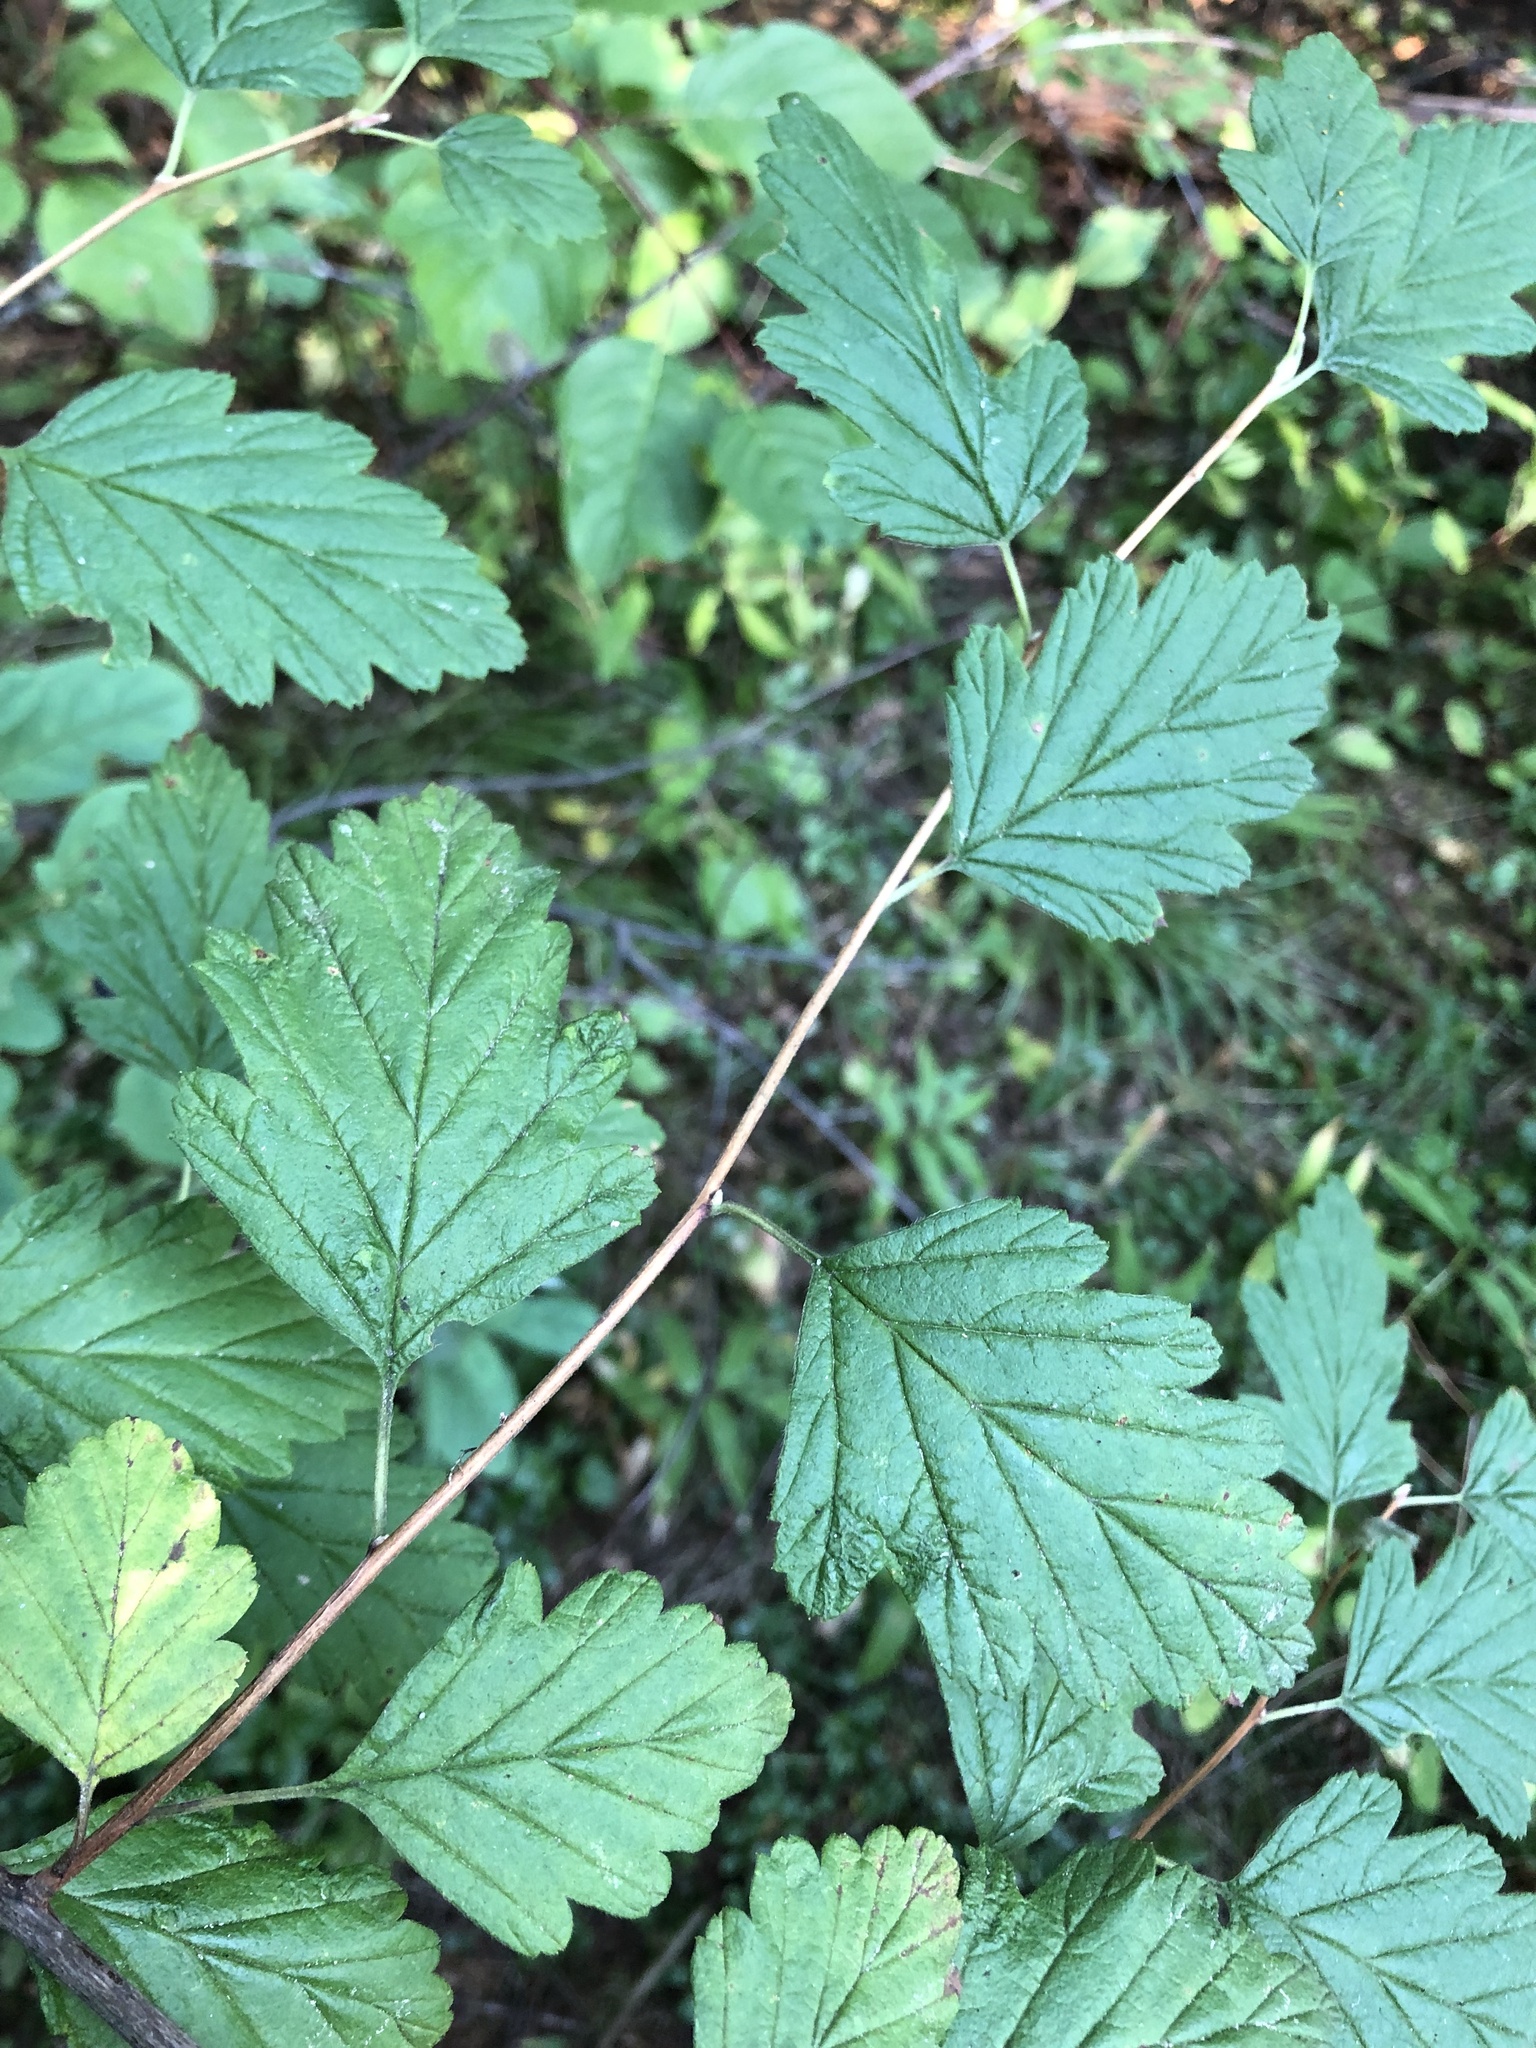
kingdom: Plantae
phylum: Tracheophyta
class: Magnoliopsida
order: Rosales
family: Rosaceae
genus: Holodiscus
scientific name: Holodiscus discolor
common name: Oceanspray
